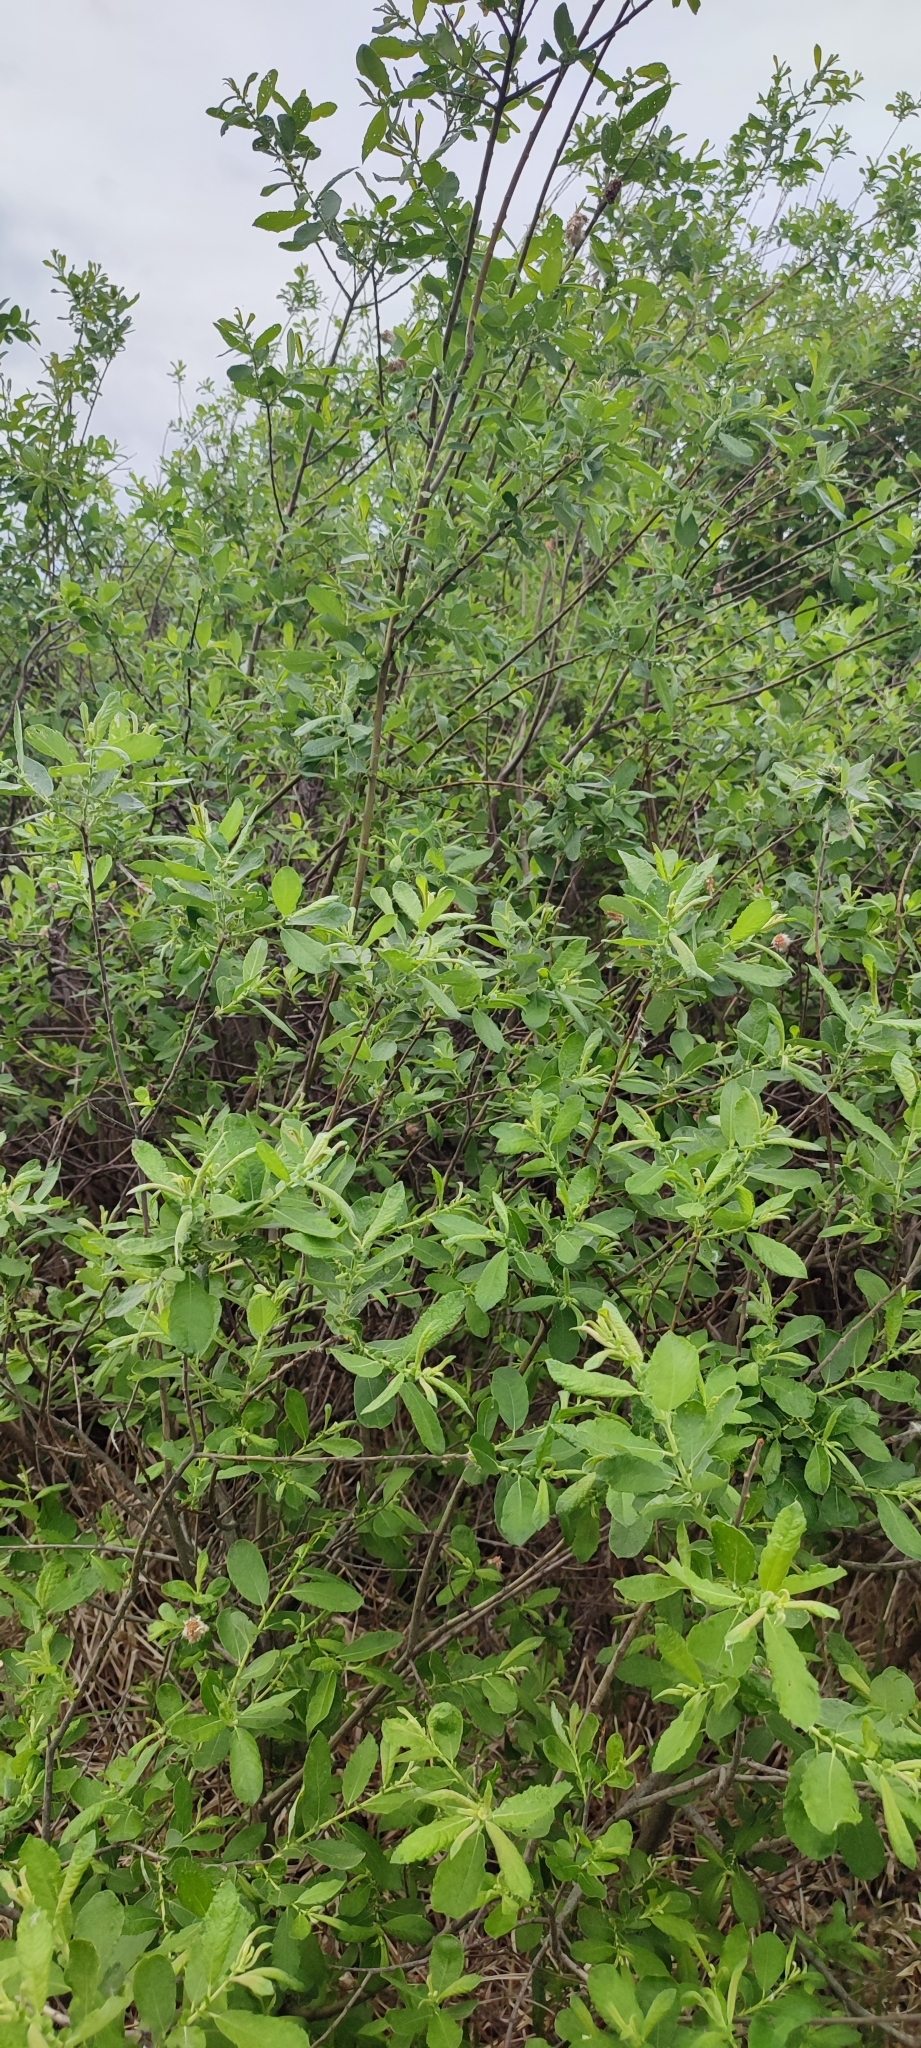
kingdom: Plantae
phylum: Tracheophyta
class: Magnoliopsida
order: Malpighiales
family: Salicaceae
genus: Salix
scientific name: Salix cinerea
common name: Common sallow
